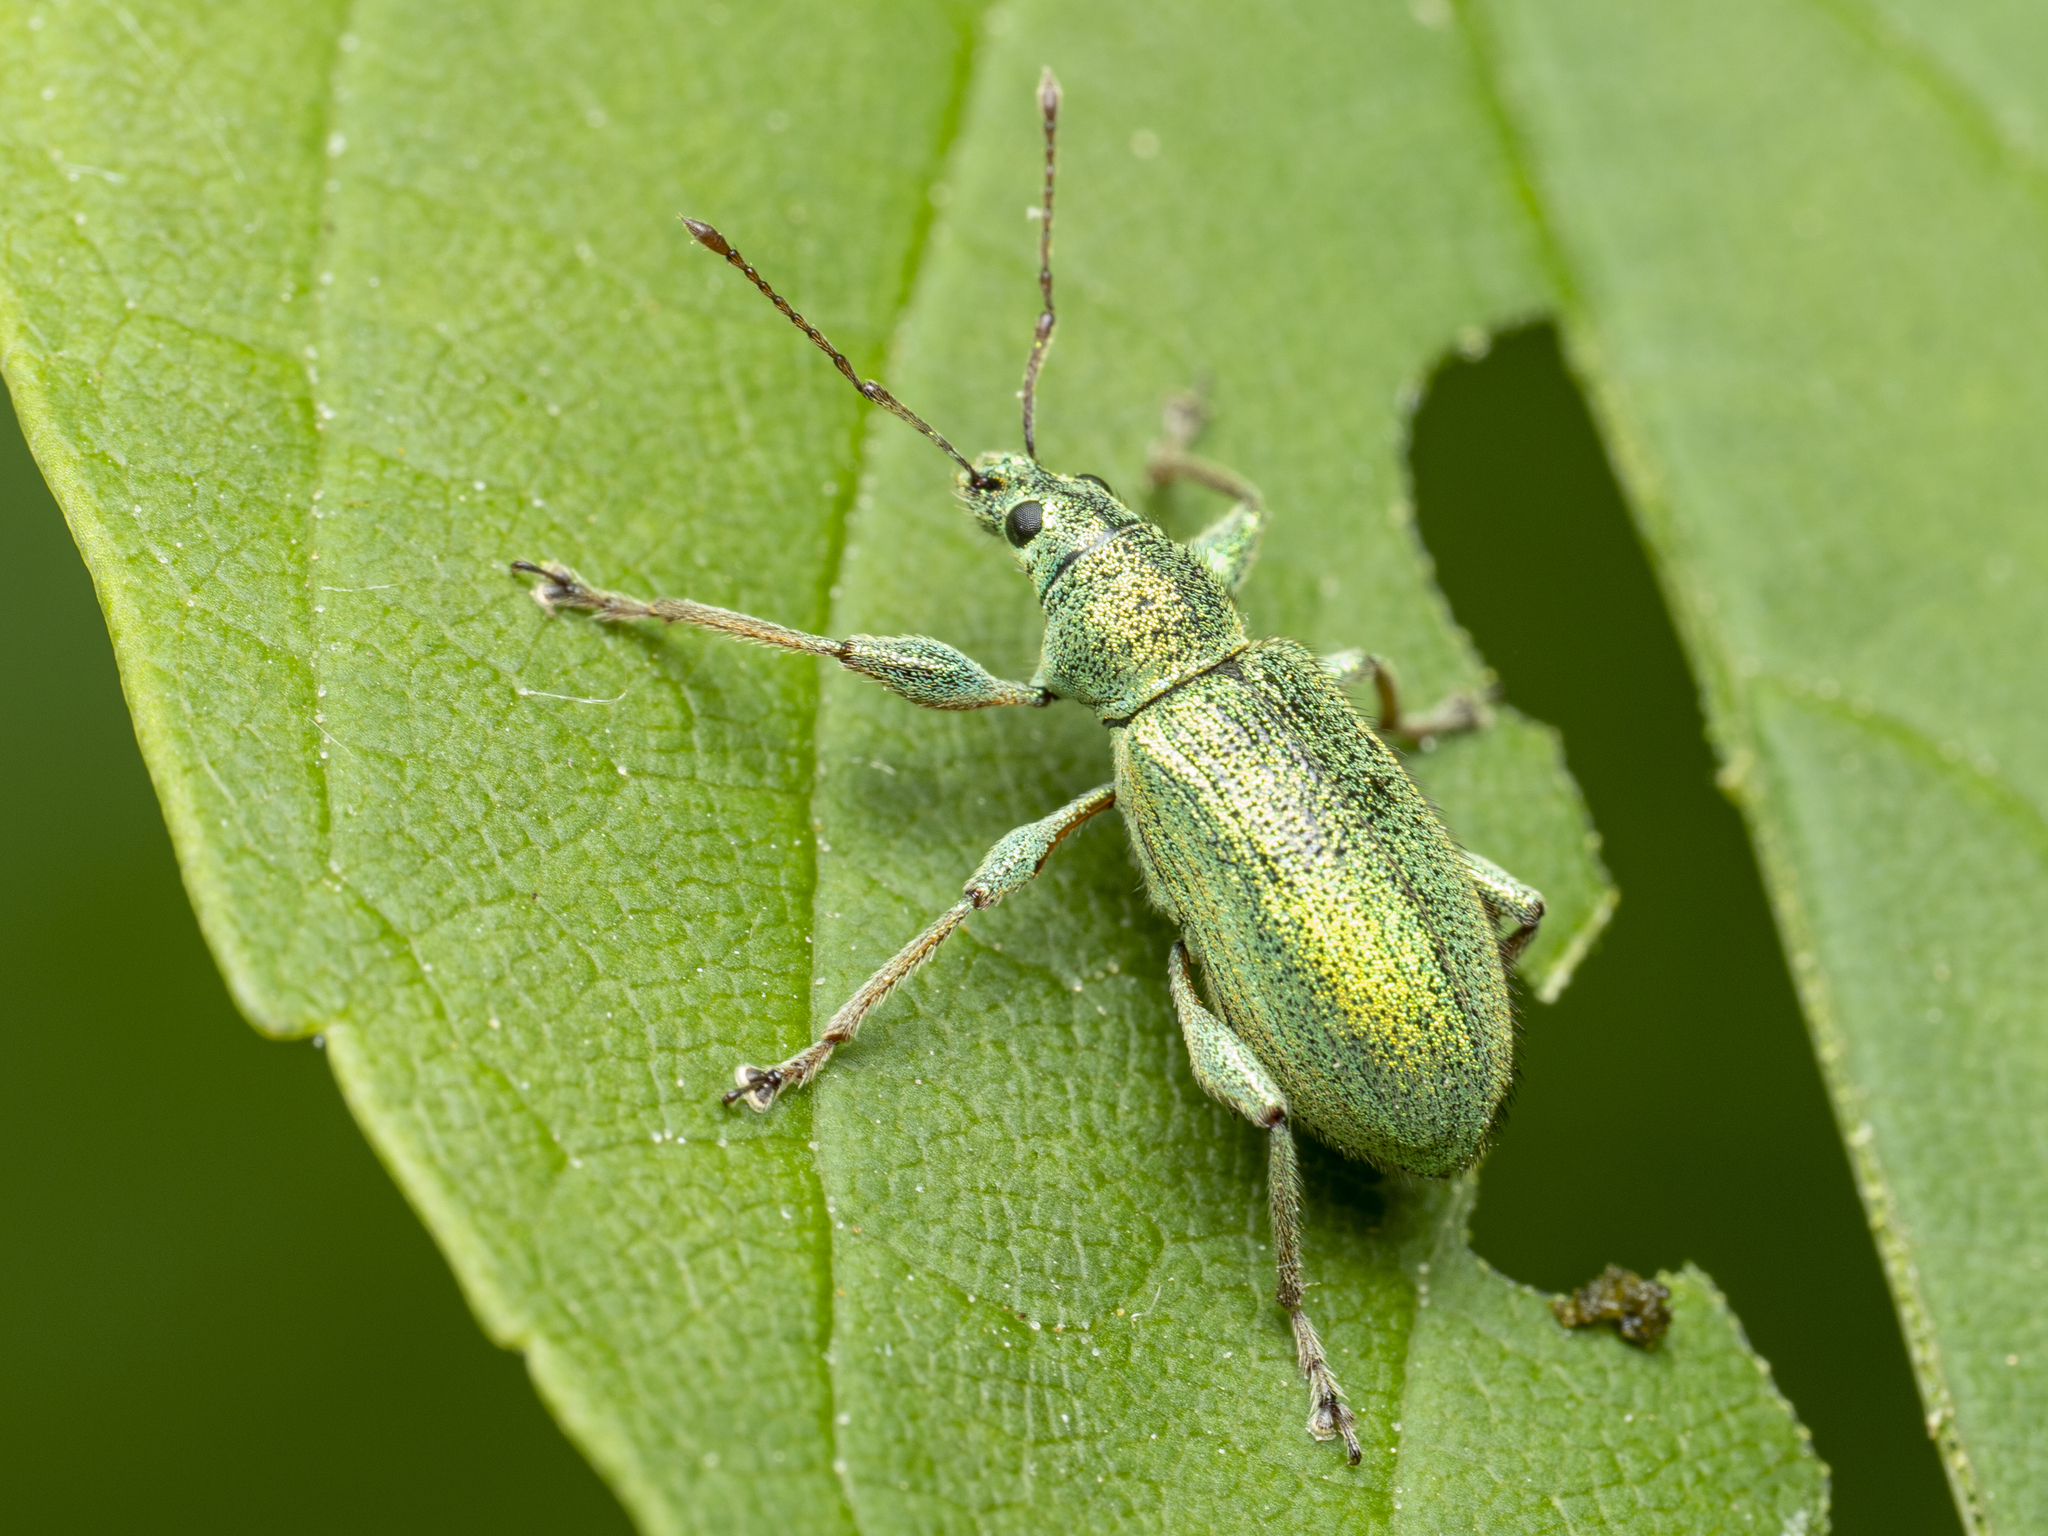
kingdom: Animalia
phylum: Arthropoda
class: Insecta
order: Coleoptera
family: Curculionidae
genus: Phyllobius
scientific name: Phyllobius arborator
